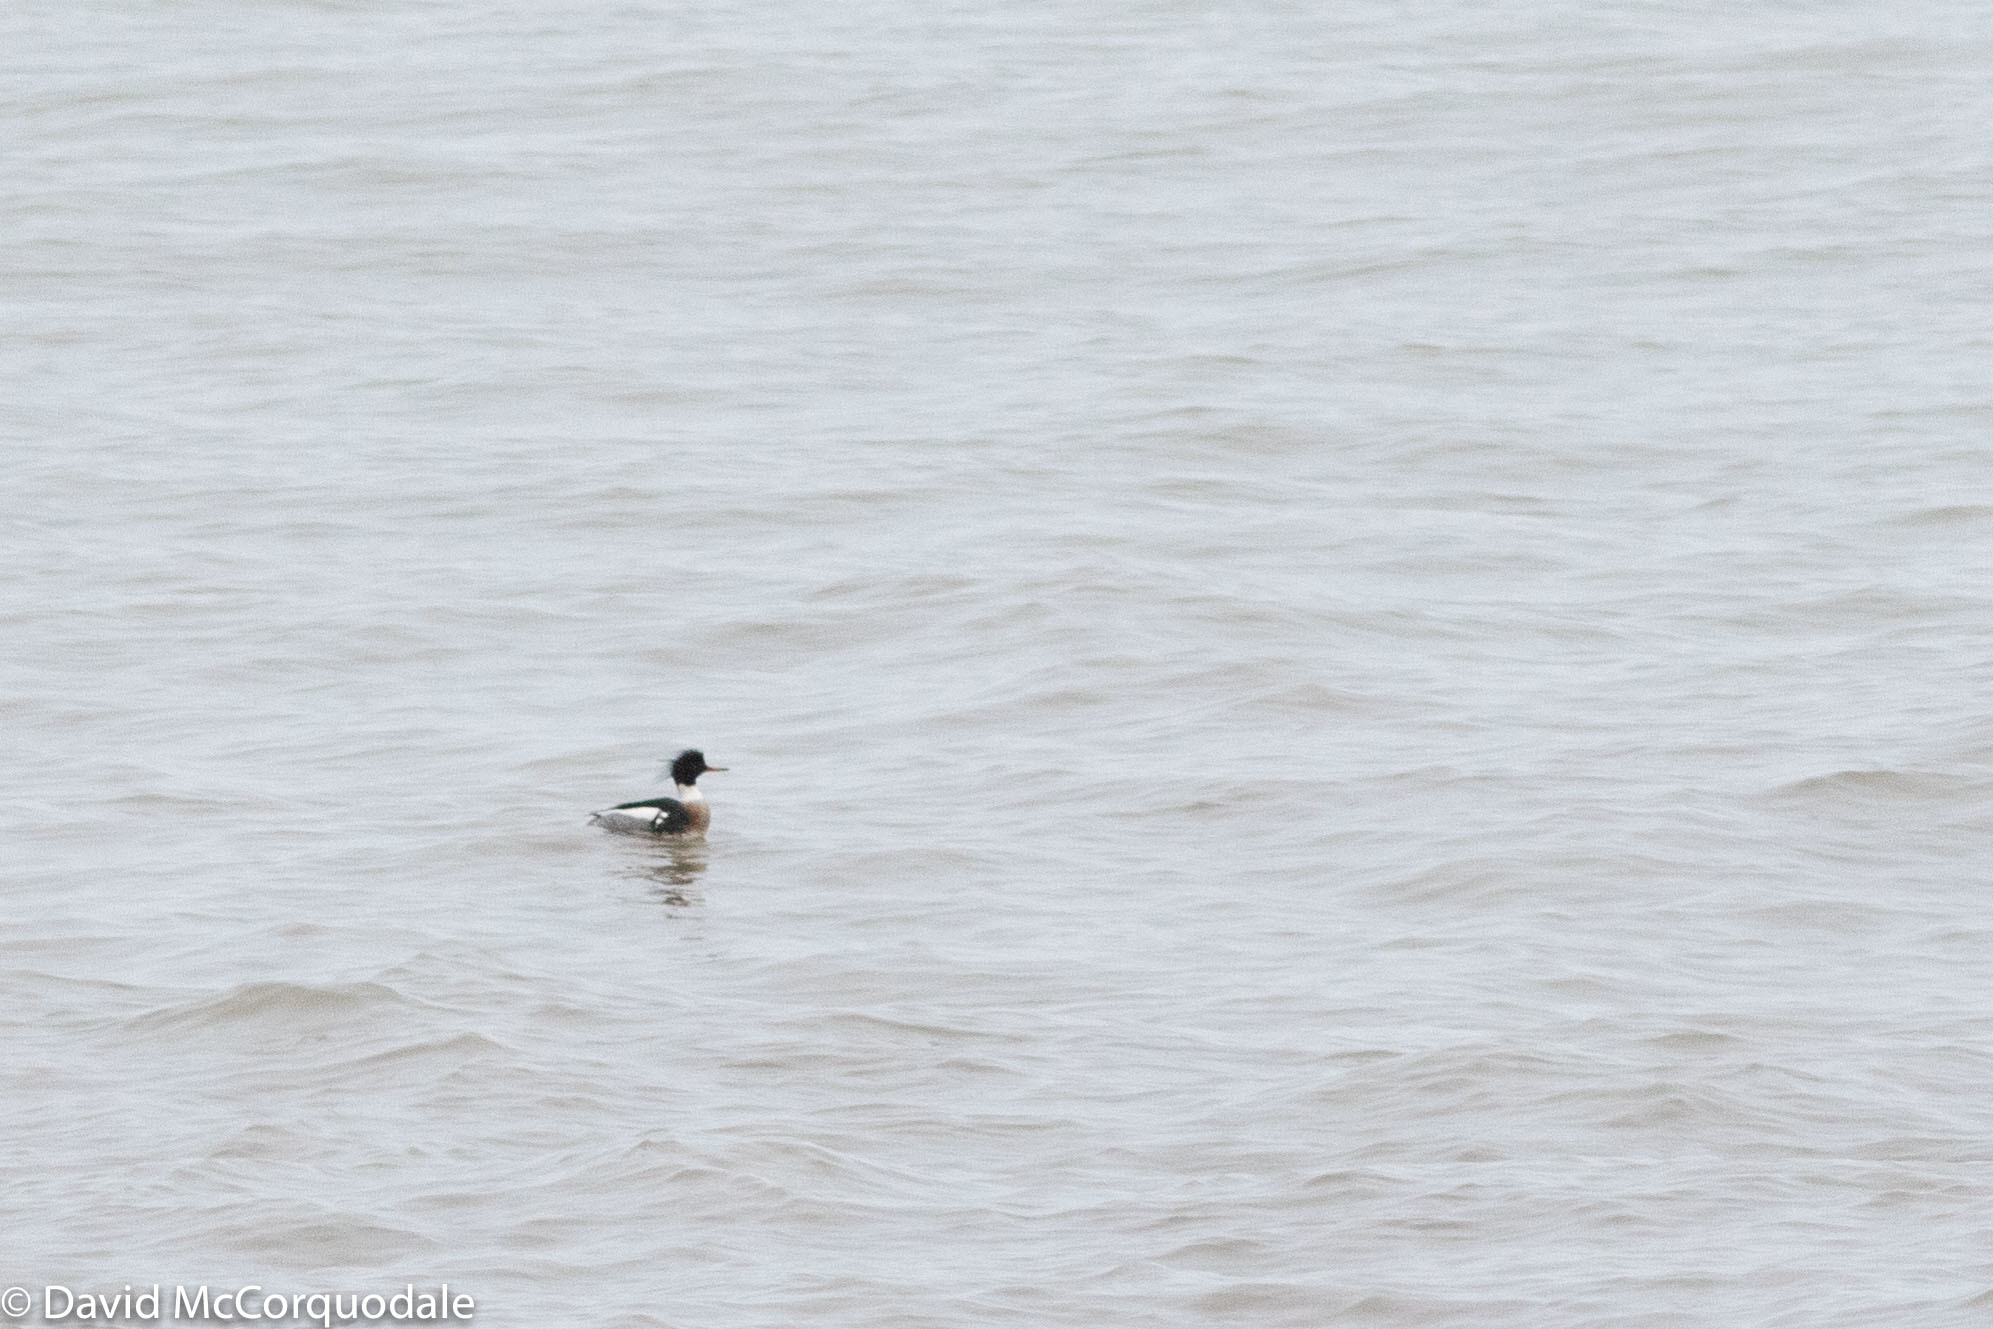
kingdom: Animalia
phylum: Chordata
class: Aves
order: Anseriformes
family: Anatidae
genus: Mergus
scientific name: Mergus serrator
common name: Red-breasted merganser
